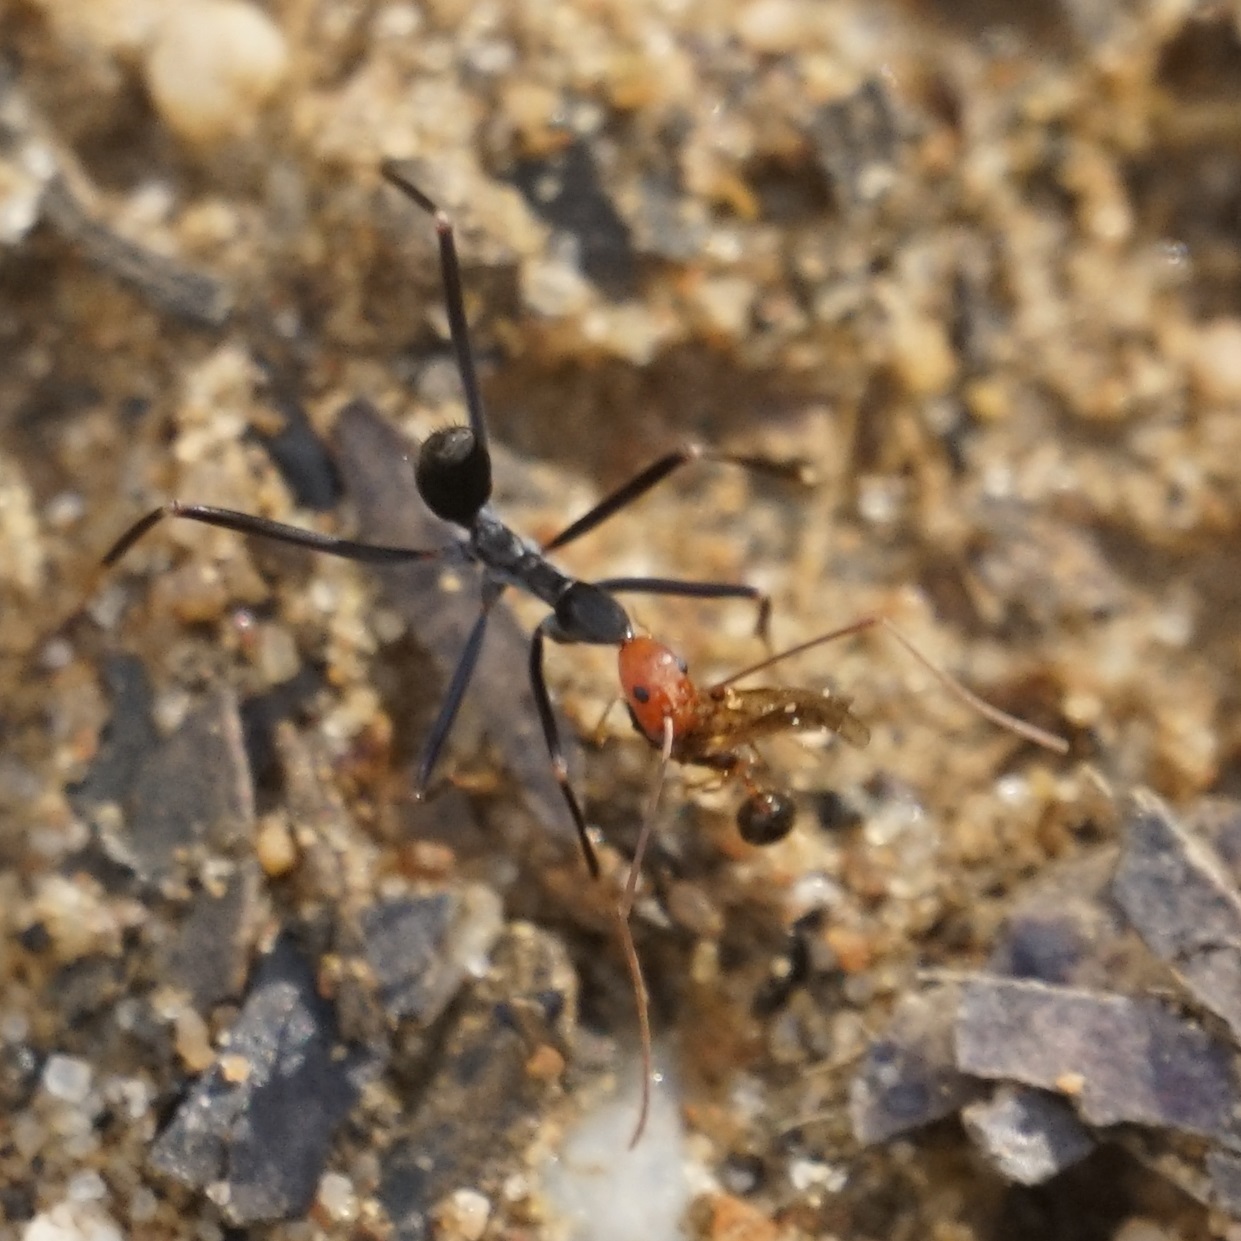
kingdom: Animalia
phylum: Arthropoda
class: Insecta
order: Hymenoptera
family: Formicidae
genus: Leptomyrmex
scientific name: Leptomyrmex erythrocephalus
